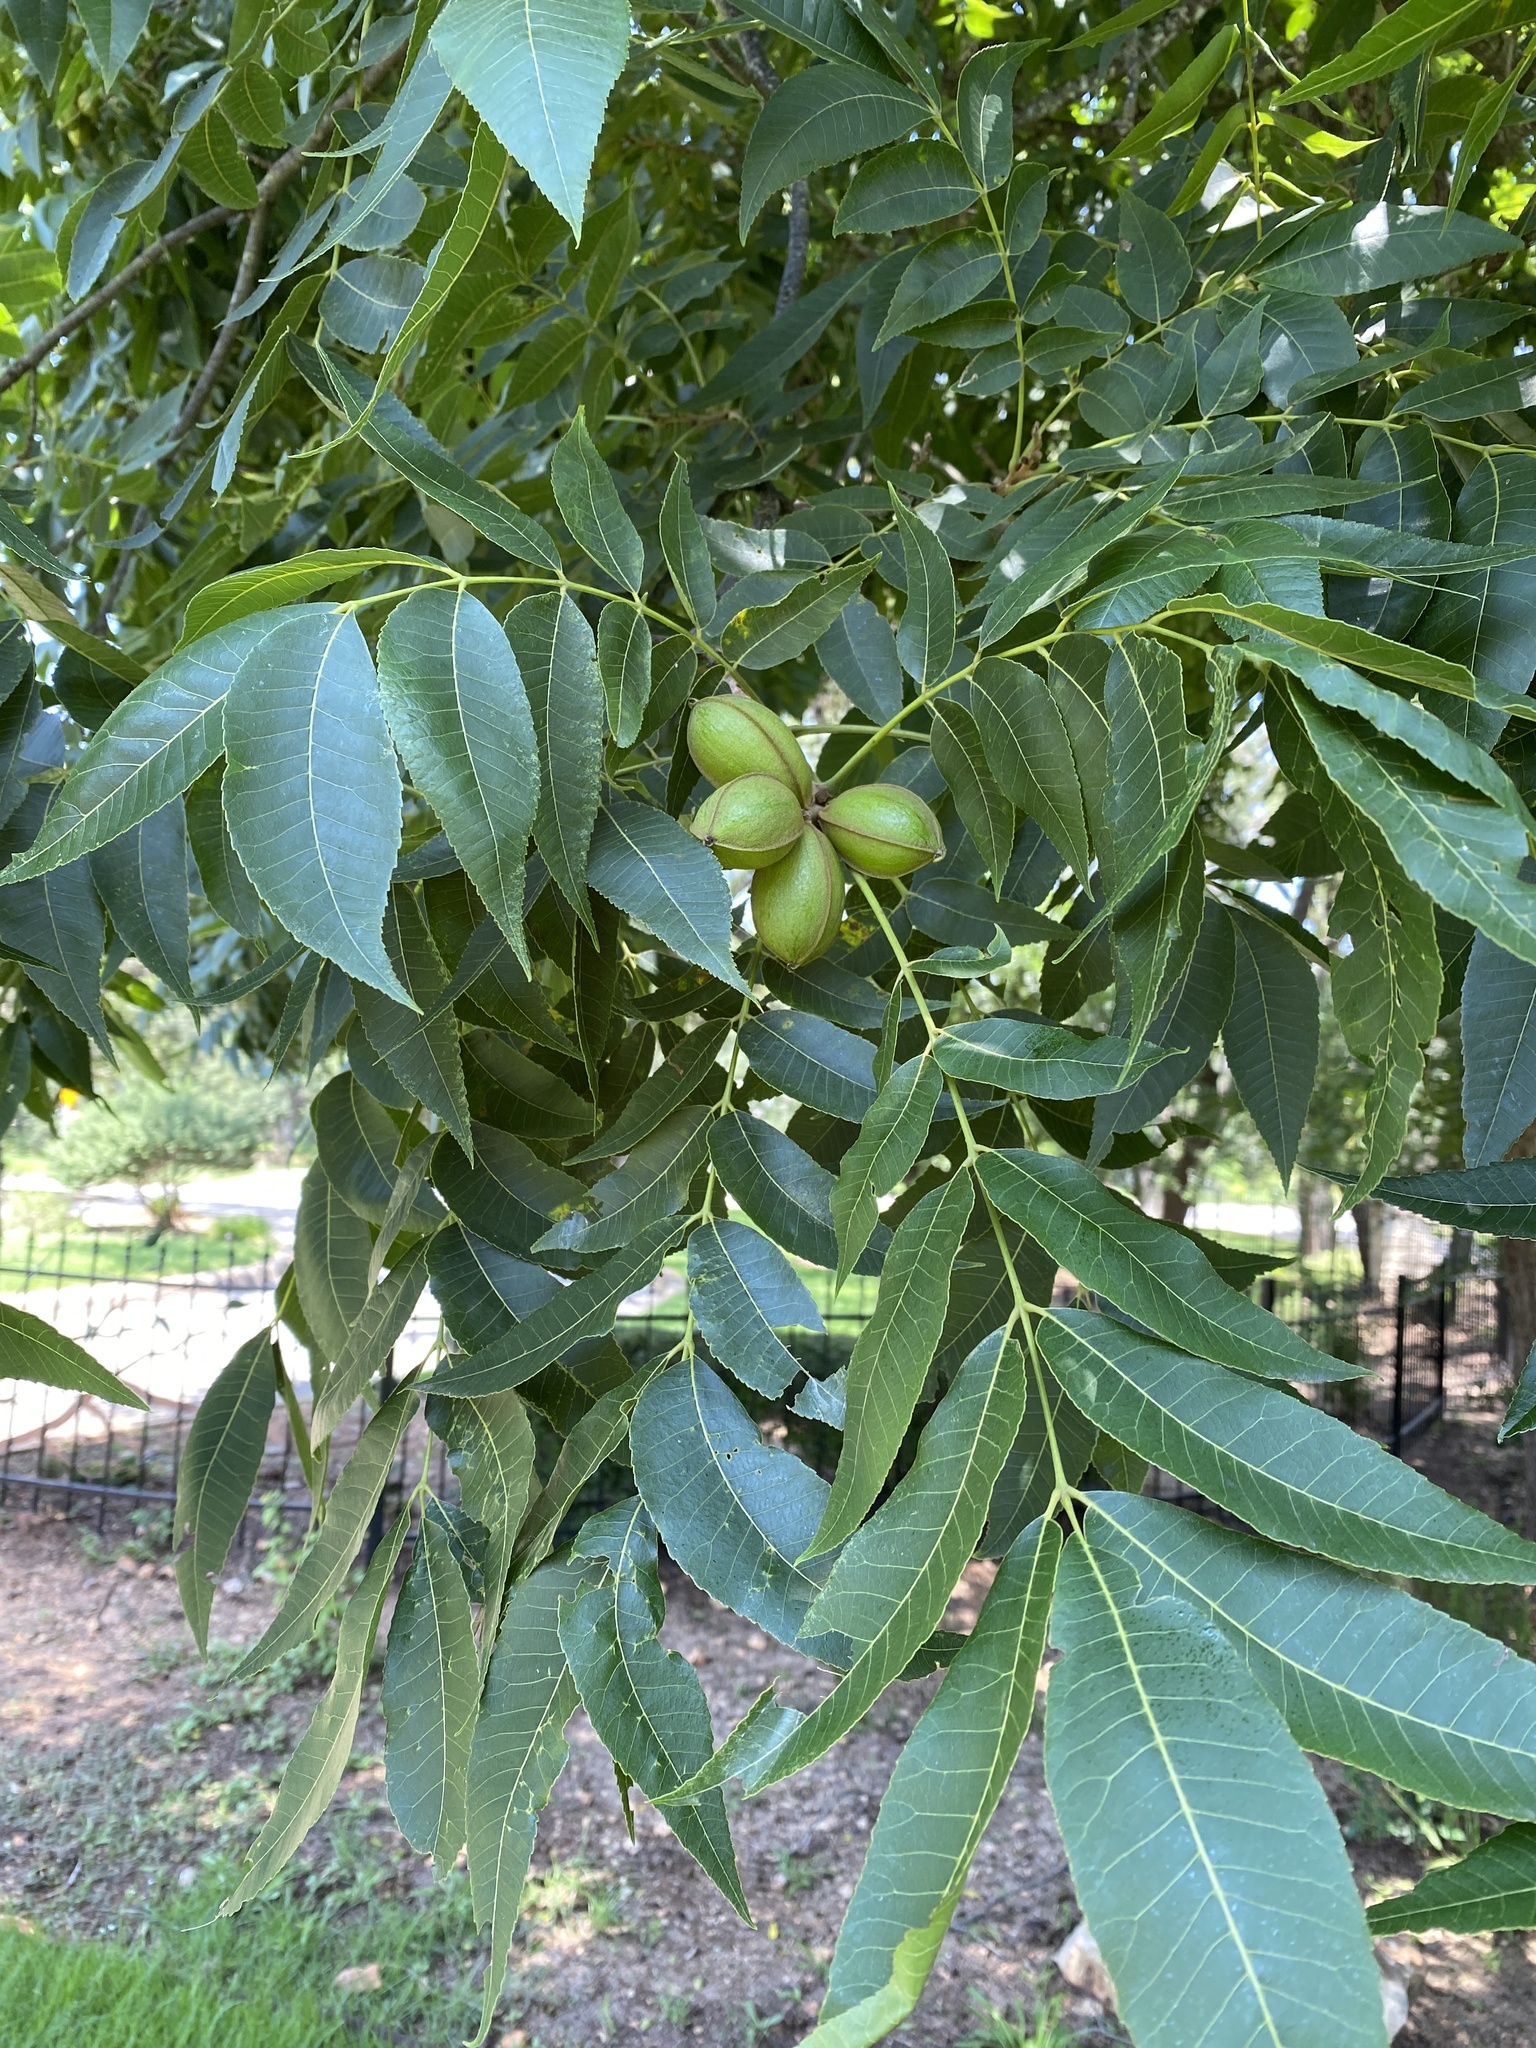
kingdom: Plantae
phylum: Tracheophyta
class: Magnoliopsida
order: Fagales
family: Juglandaceae
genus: Carya
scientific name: Carya illinoinensis
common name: Pecan
